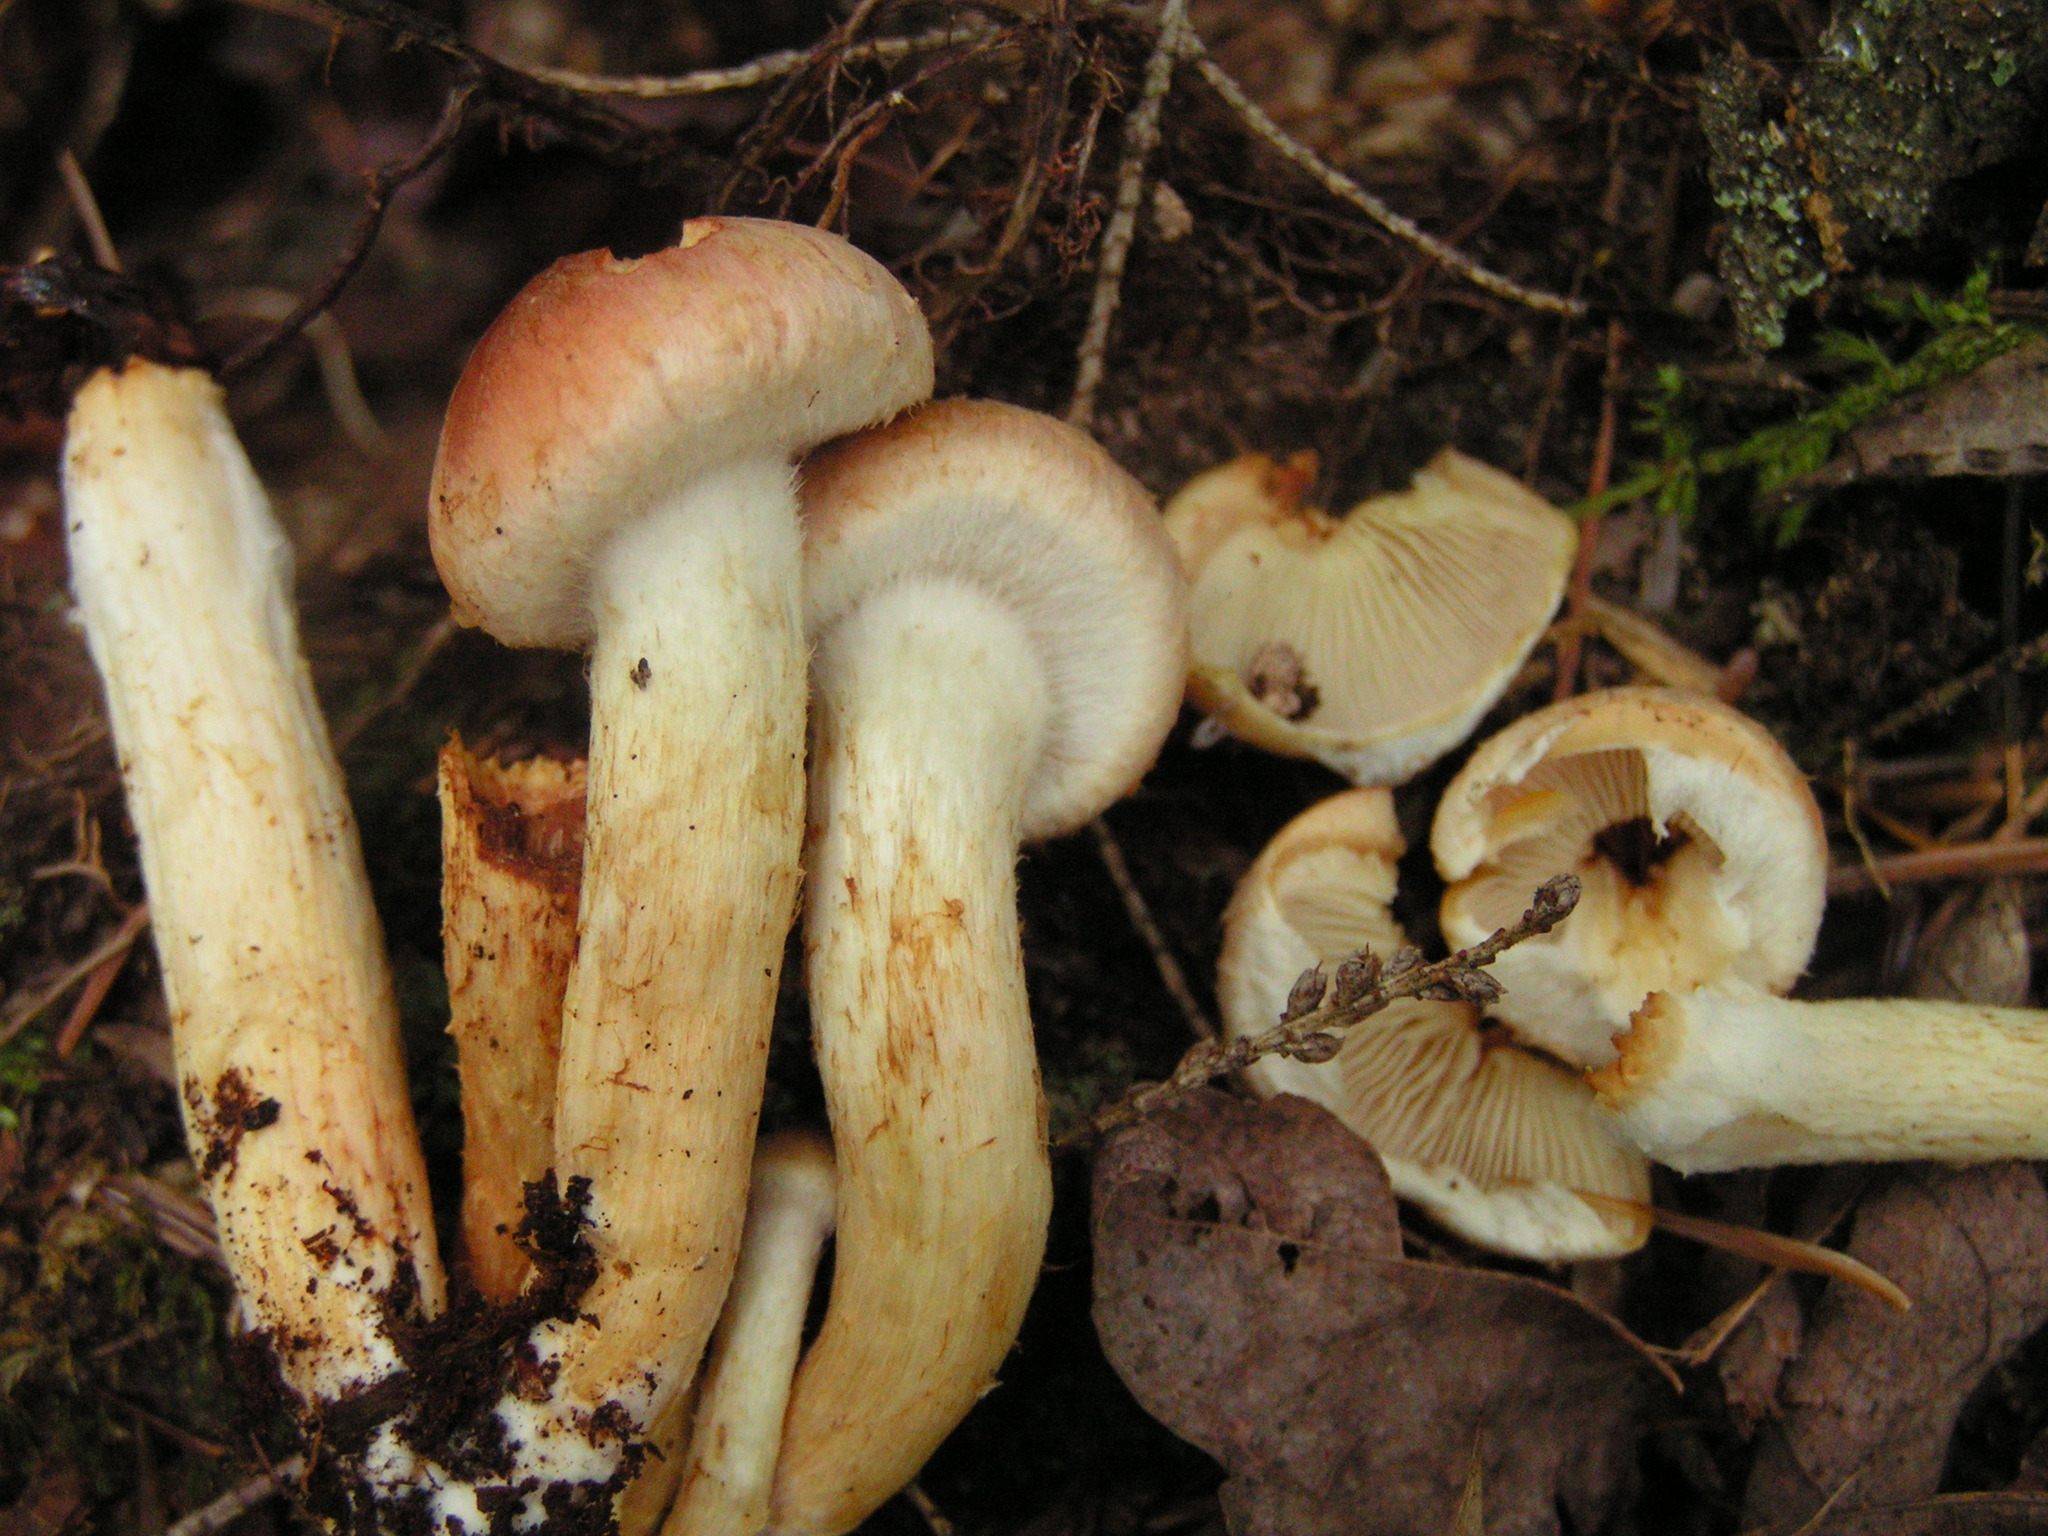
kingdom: Fungi
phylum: Basidiomycota
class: Agaricomycetes
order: Agaricales
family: Strophariaceae
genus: Hypholoma
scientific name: Hypholoma lateritium
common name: Brick caps
